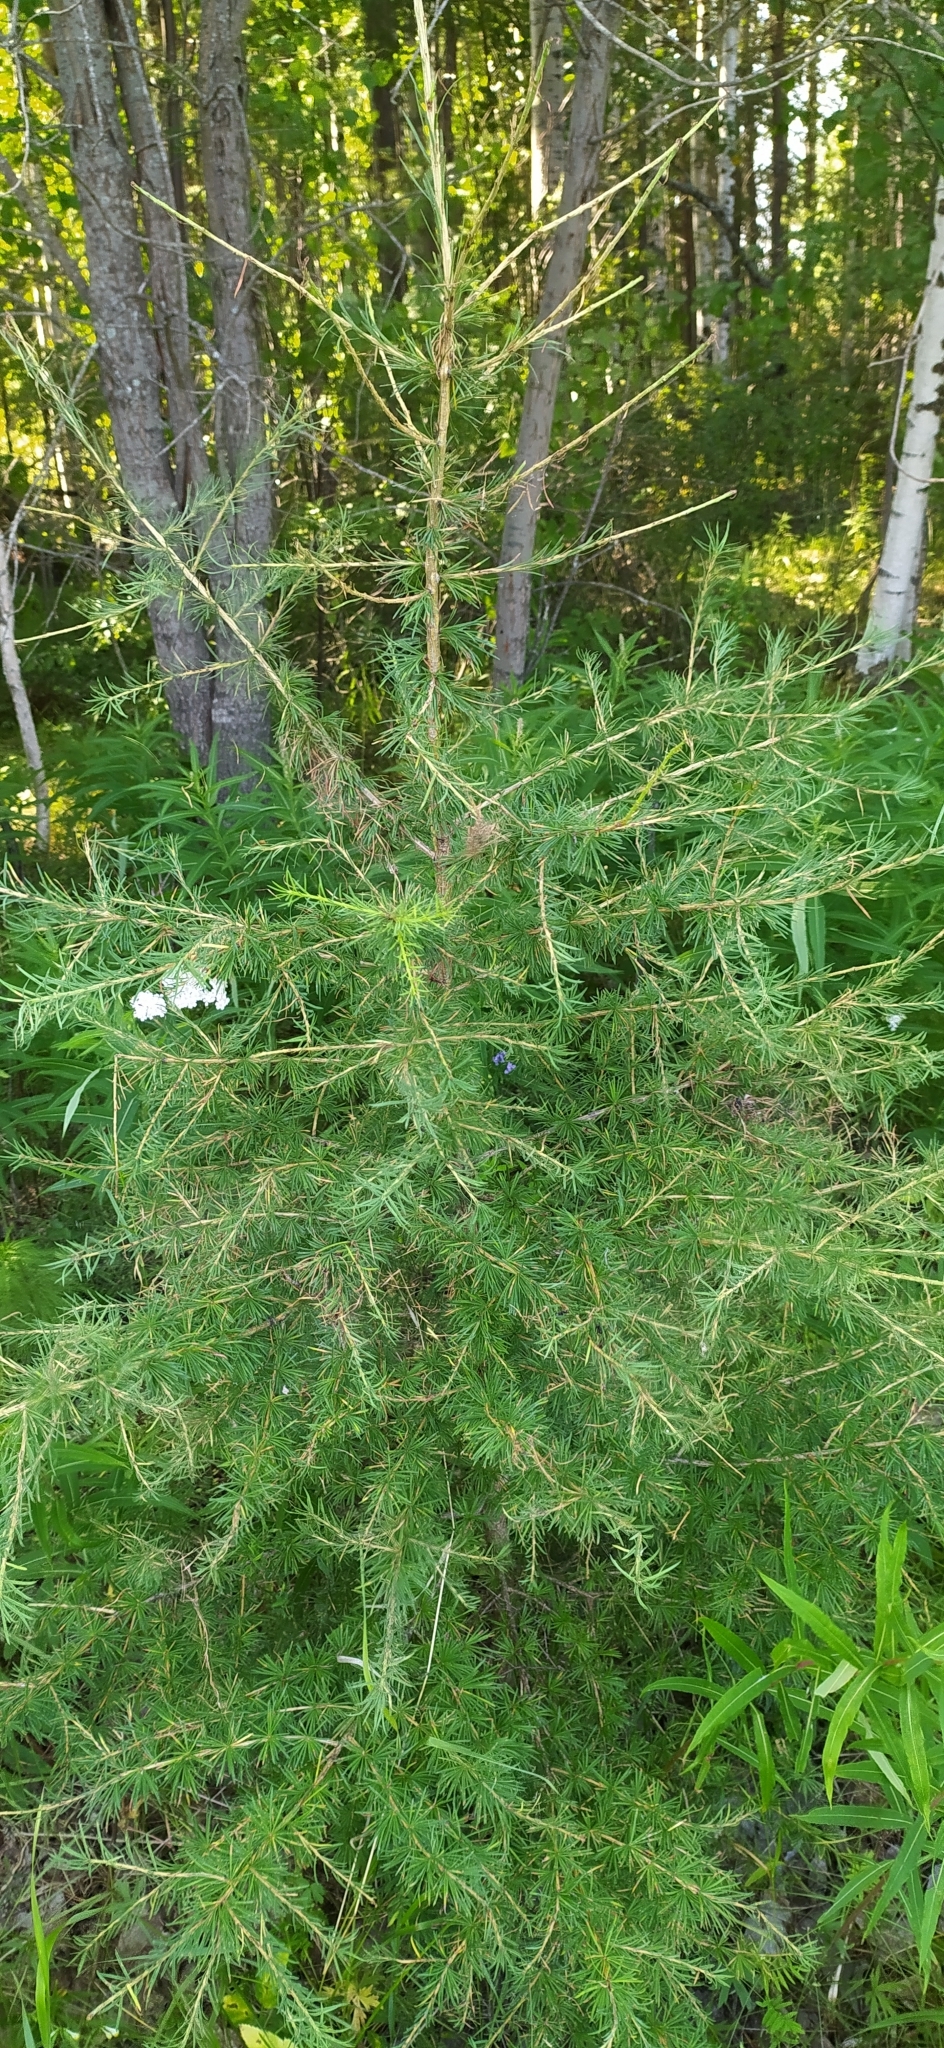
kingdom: Plantae
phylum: Tracheophyta
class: Pinopsida
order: Pinales
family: Pinaceae
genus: Larix
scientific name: Larix sibirica
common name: Siberian larch
